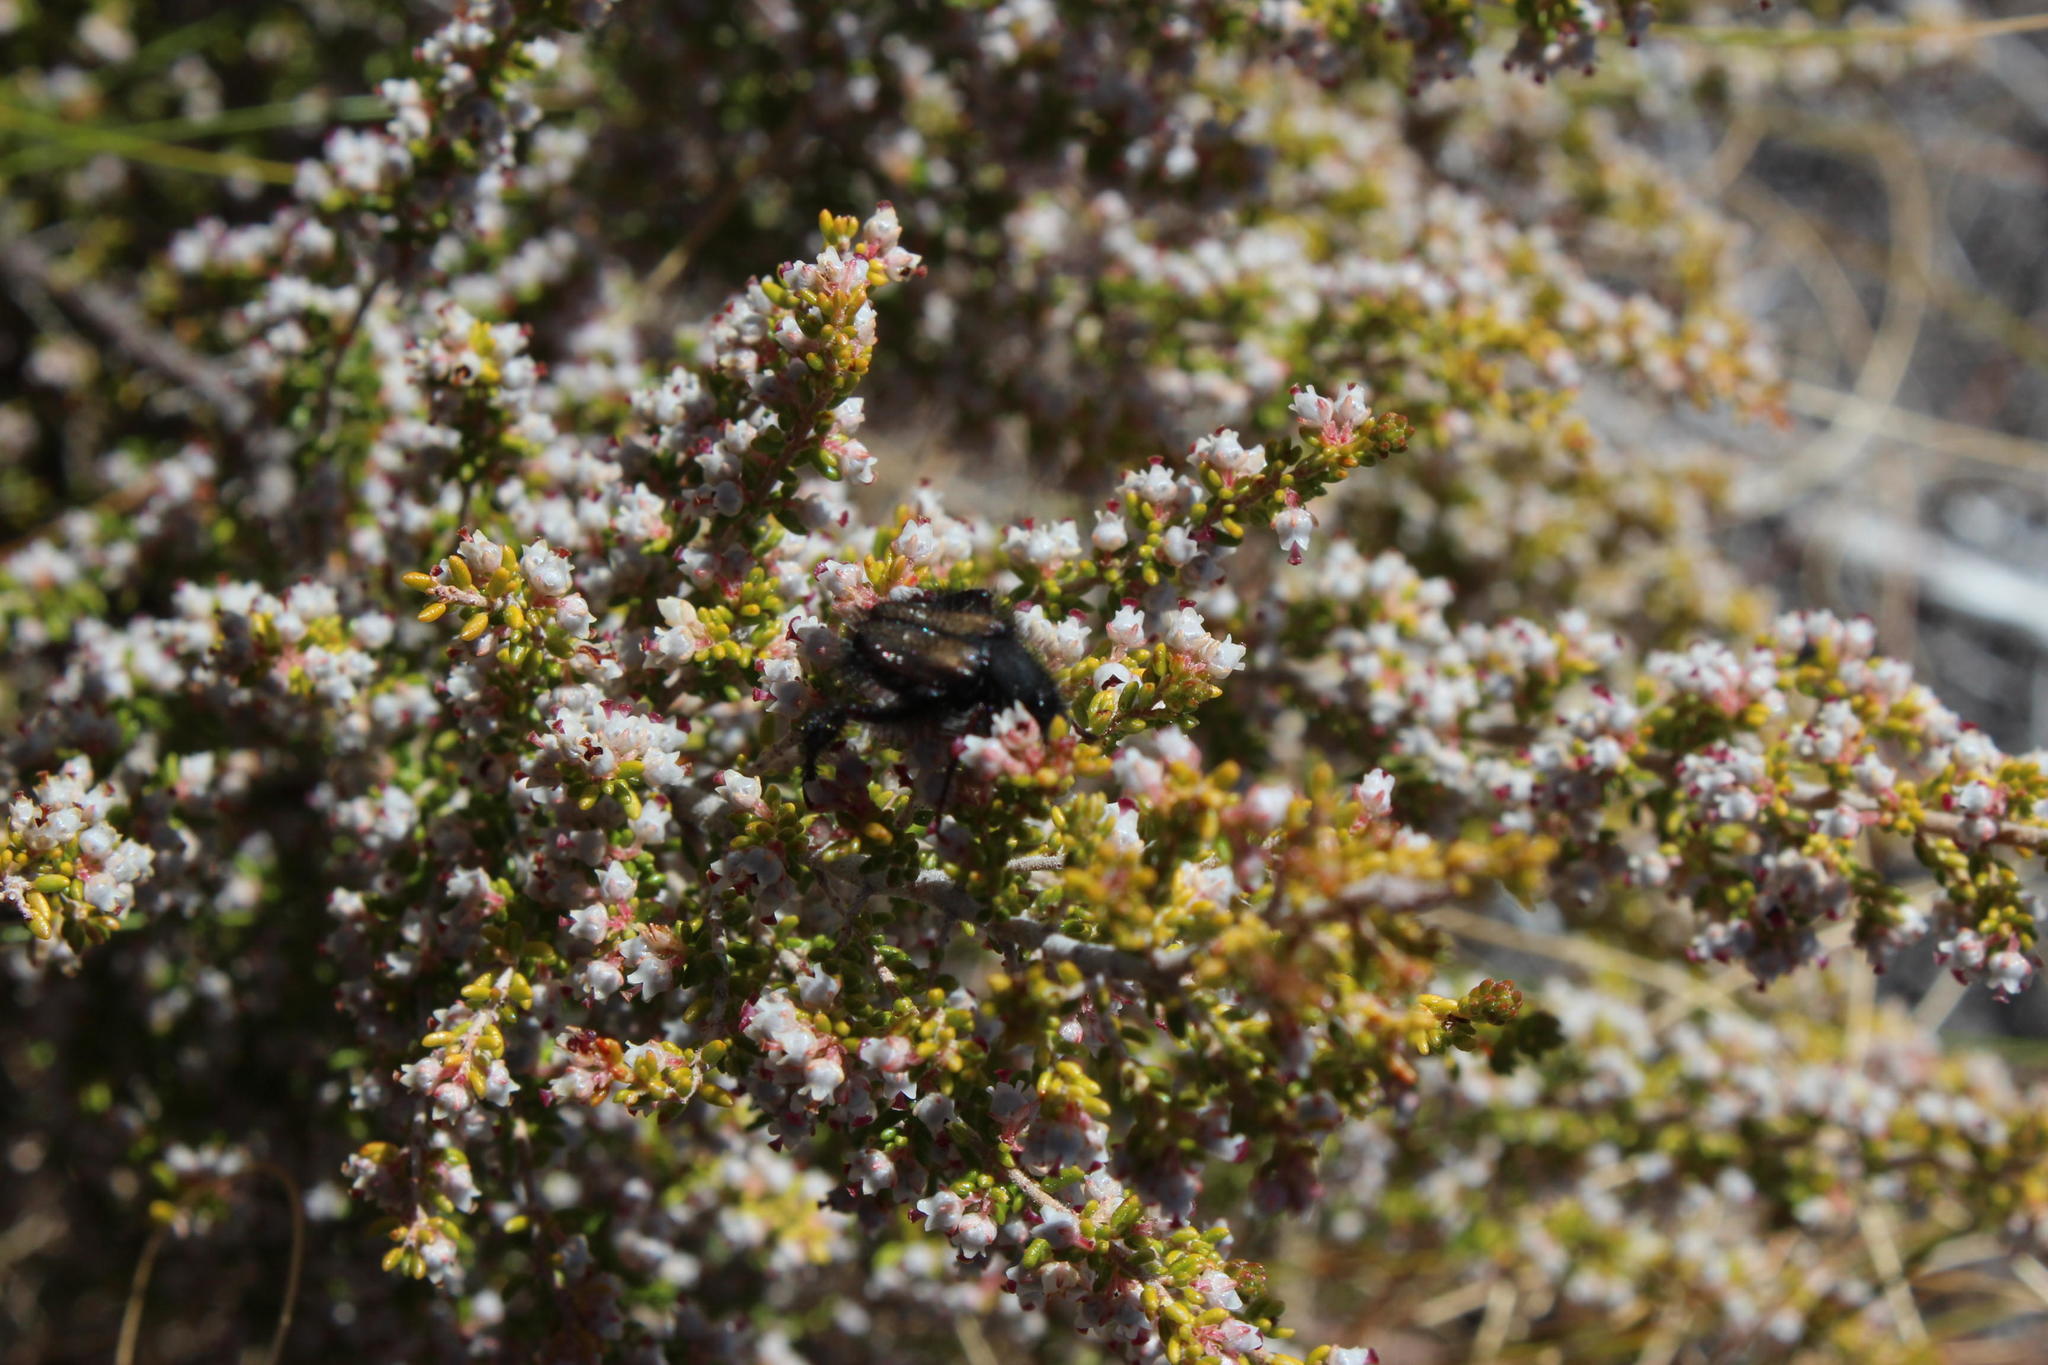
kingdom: Plantae
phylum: Tracheophyta
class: Magnoliopsida
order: Ericales
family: Ericaceae
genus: Erica
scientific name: Erica copiosa
